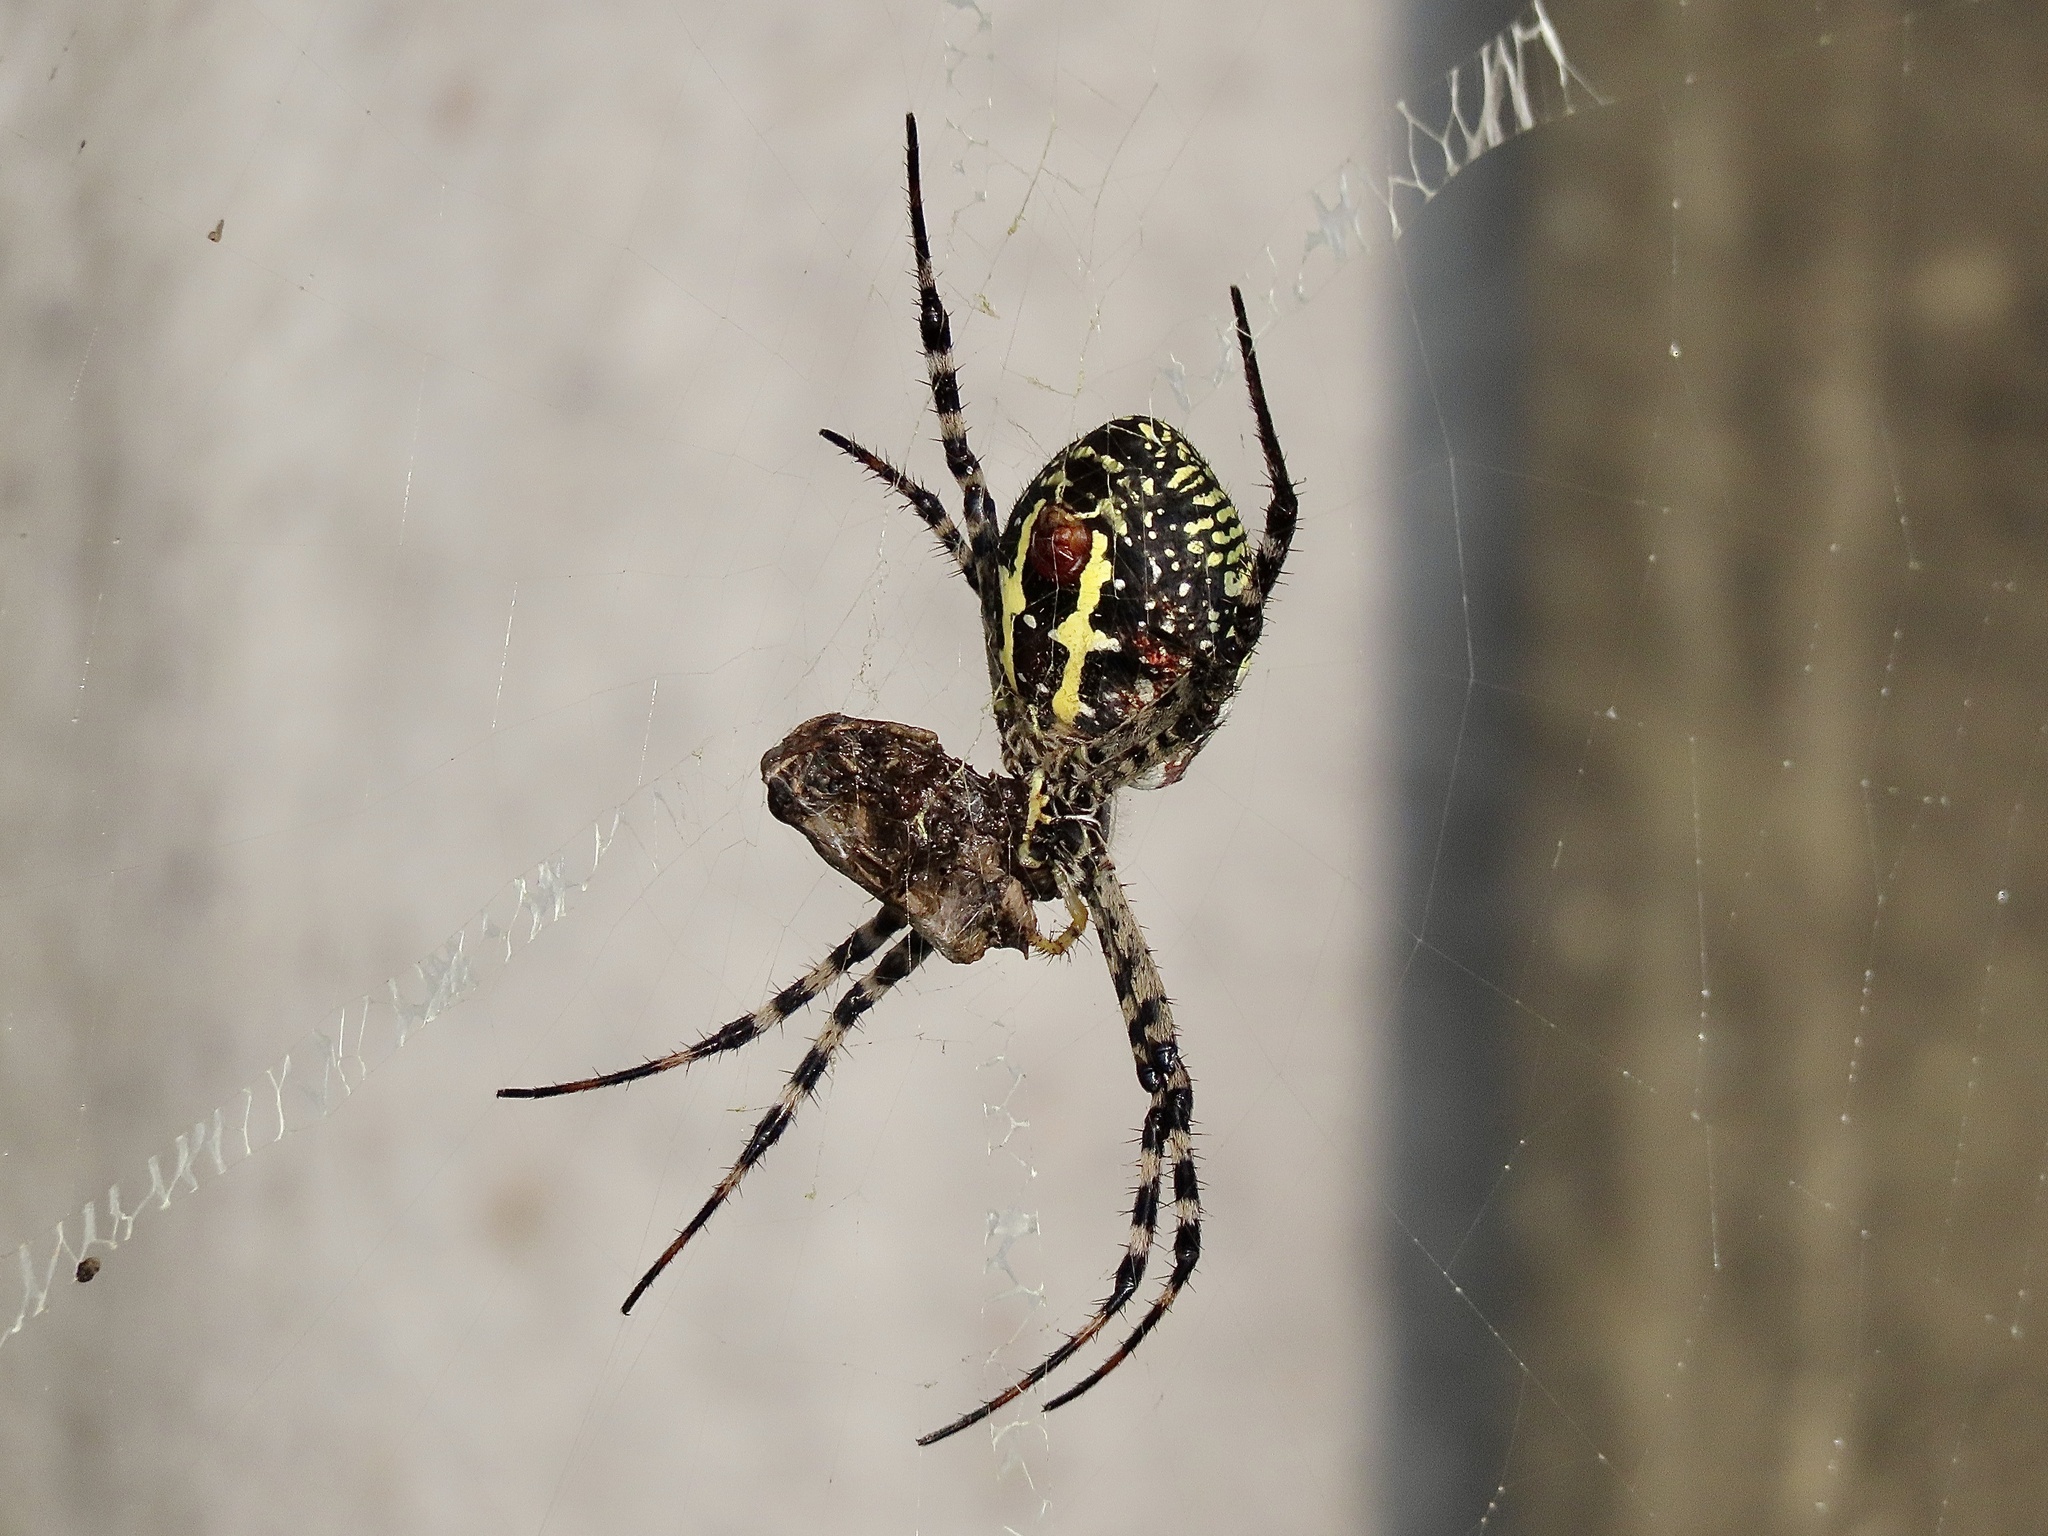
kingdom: Animalia
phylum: Arthropoda
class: Arachnida
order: Araneae
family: Araneidae
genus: Argiope
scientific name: Argiope aemula
